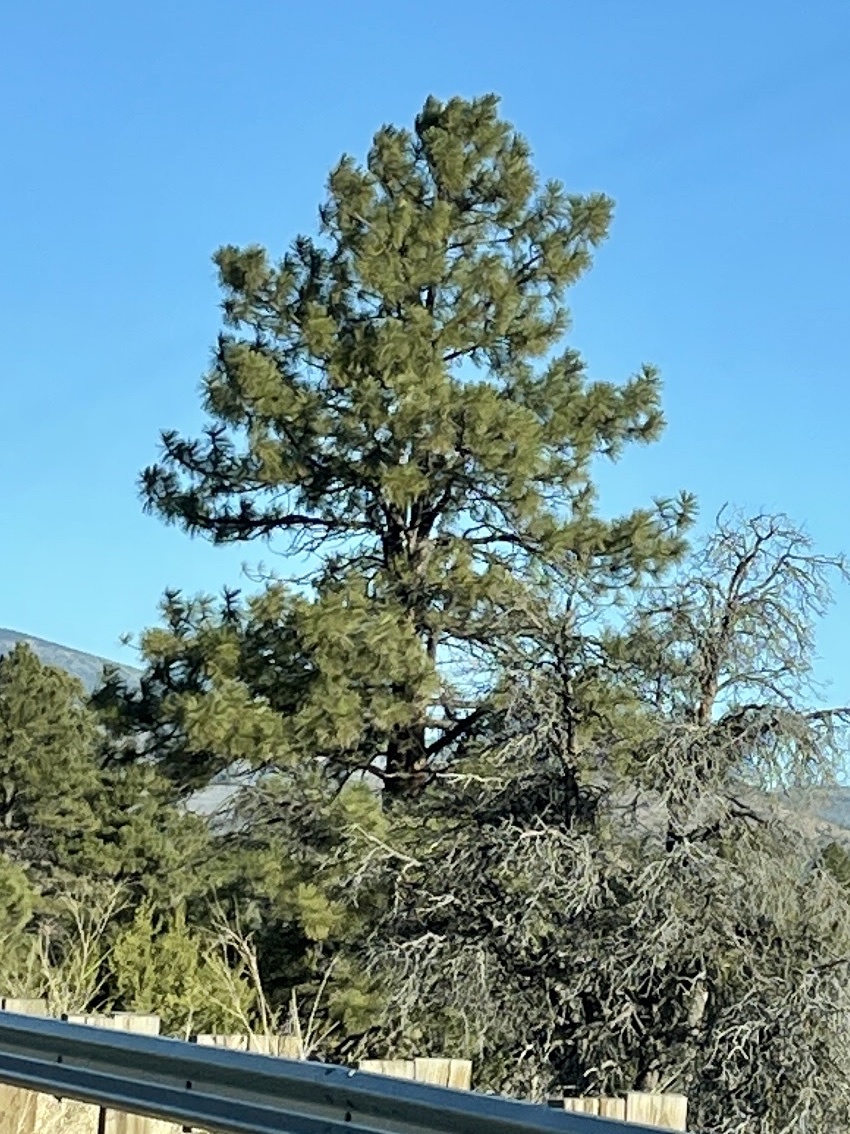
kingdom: Plantae
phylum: Tracheophyta
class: Pinopsida
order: Pinales
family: Pinaceae
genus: Pinus
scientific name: Pinus ponderosa
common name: Western yellow-pine
